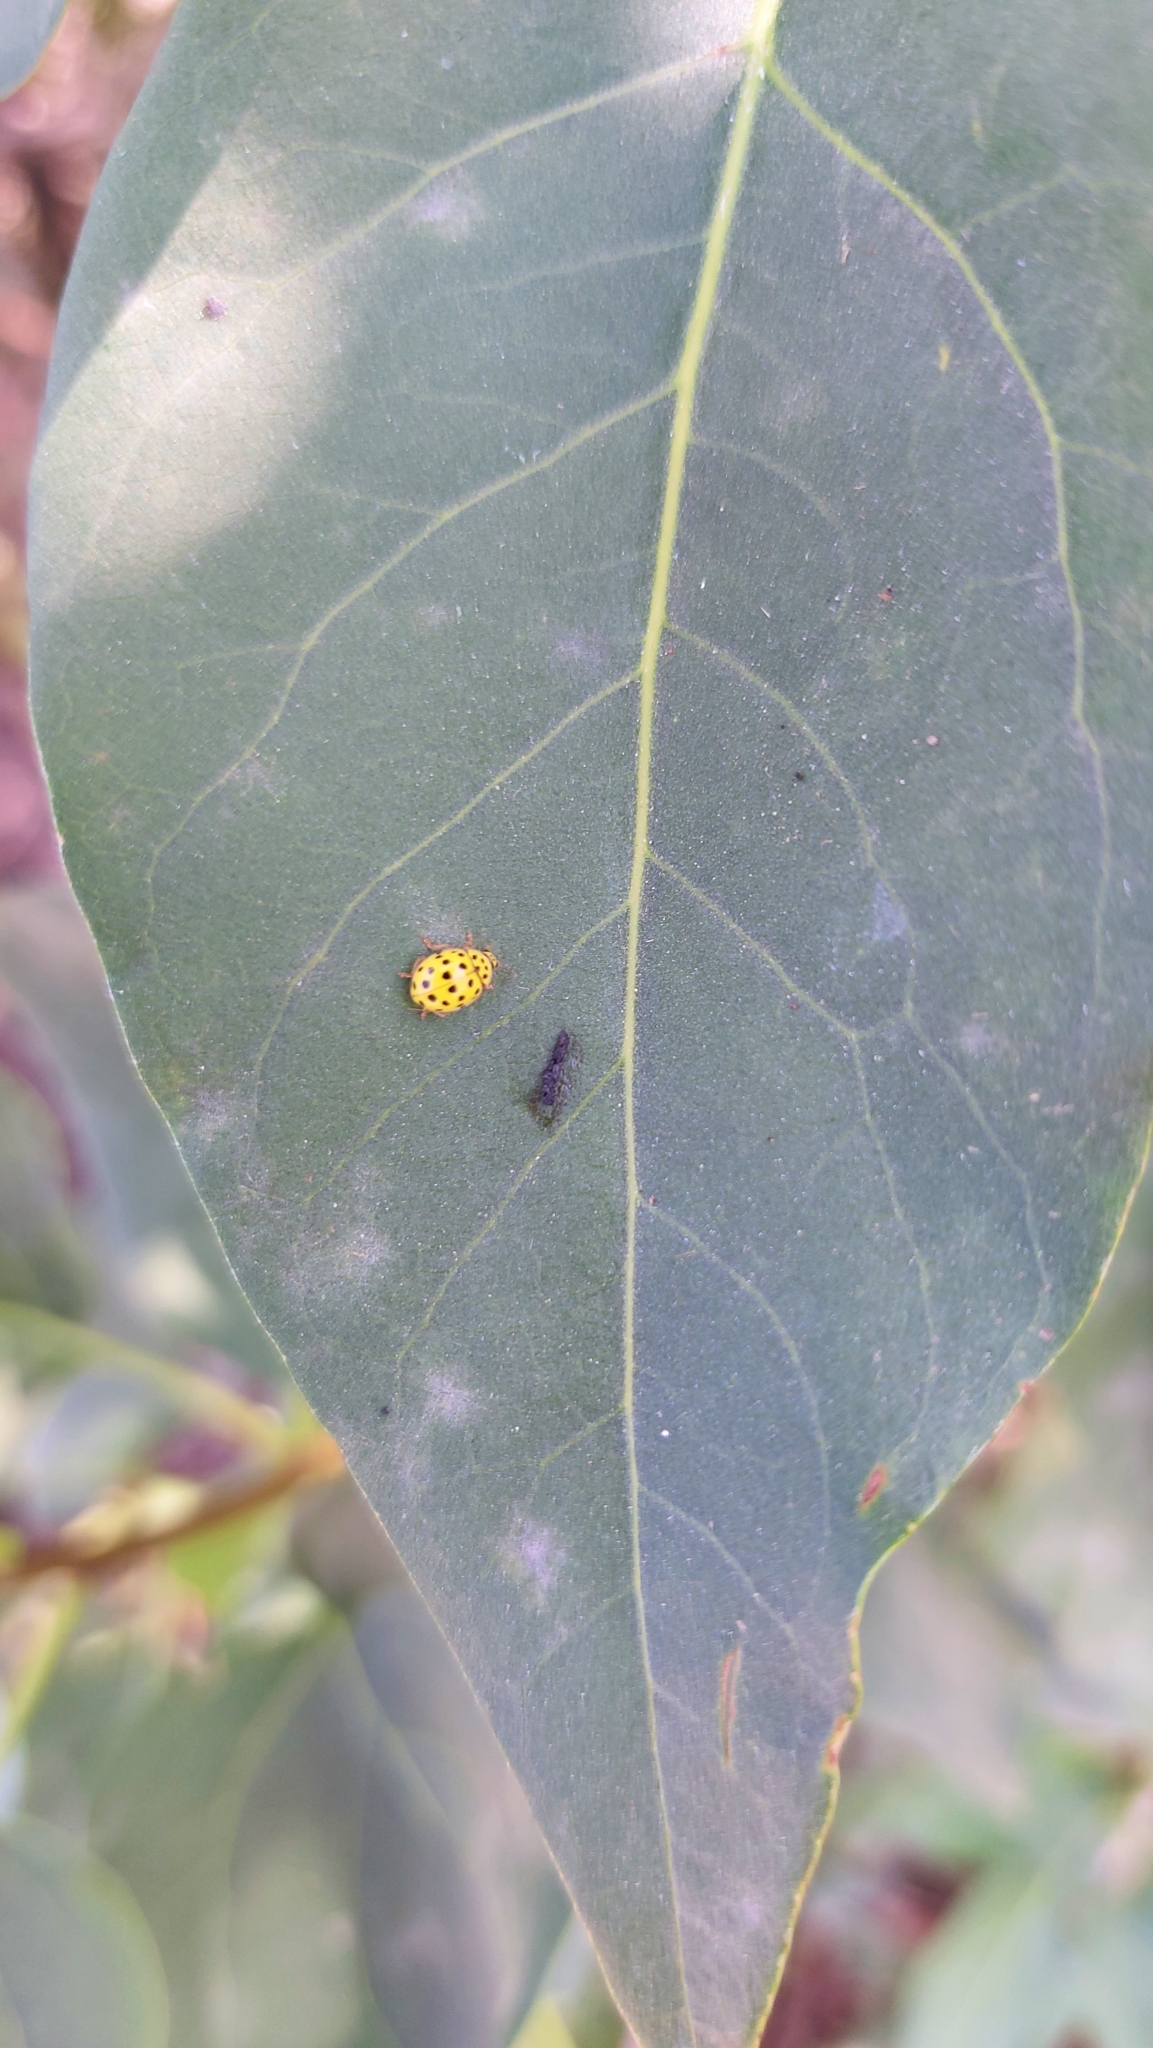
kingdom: Animalia
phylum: Arthropoda
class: Insecta
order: Coleoptera
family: Coccinellidae
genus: Psyllobora
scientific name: Psyllobora vigintiduopunctata
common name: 22-spot ladybird
